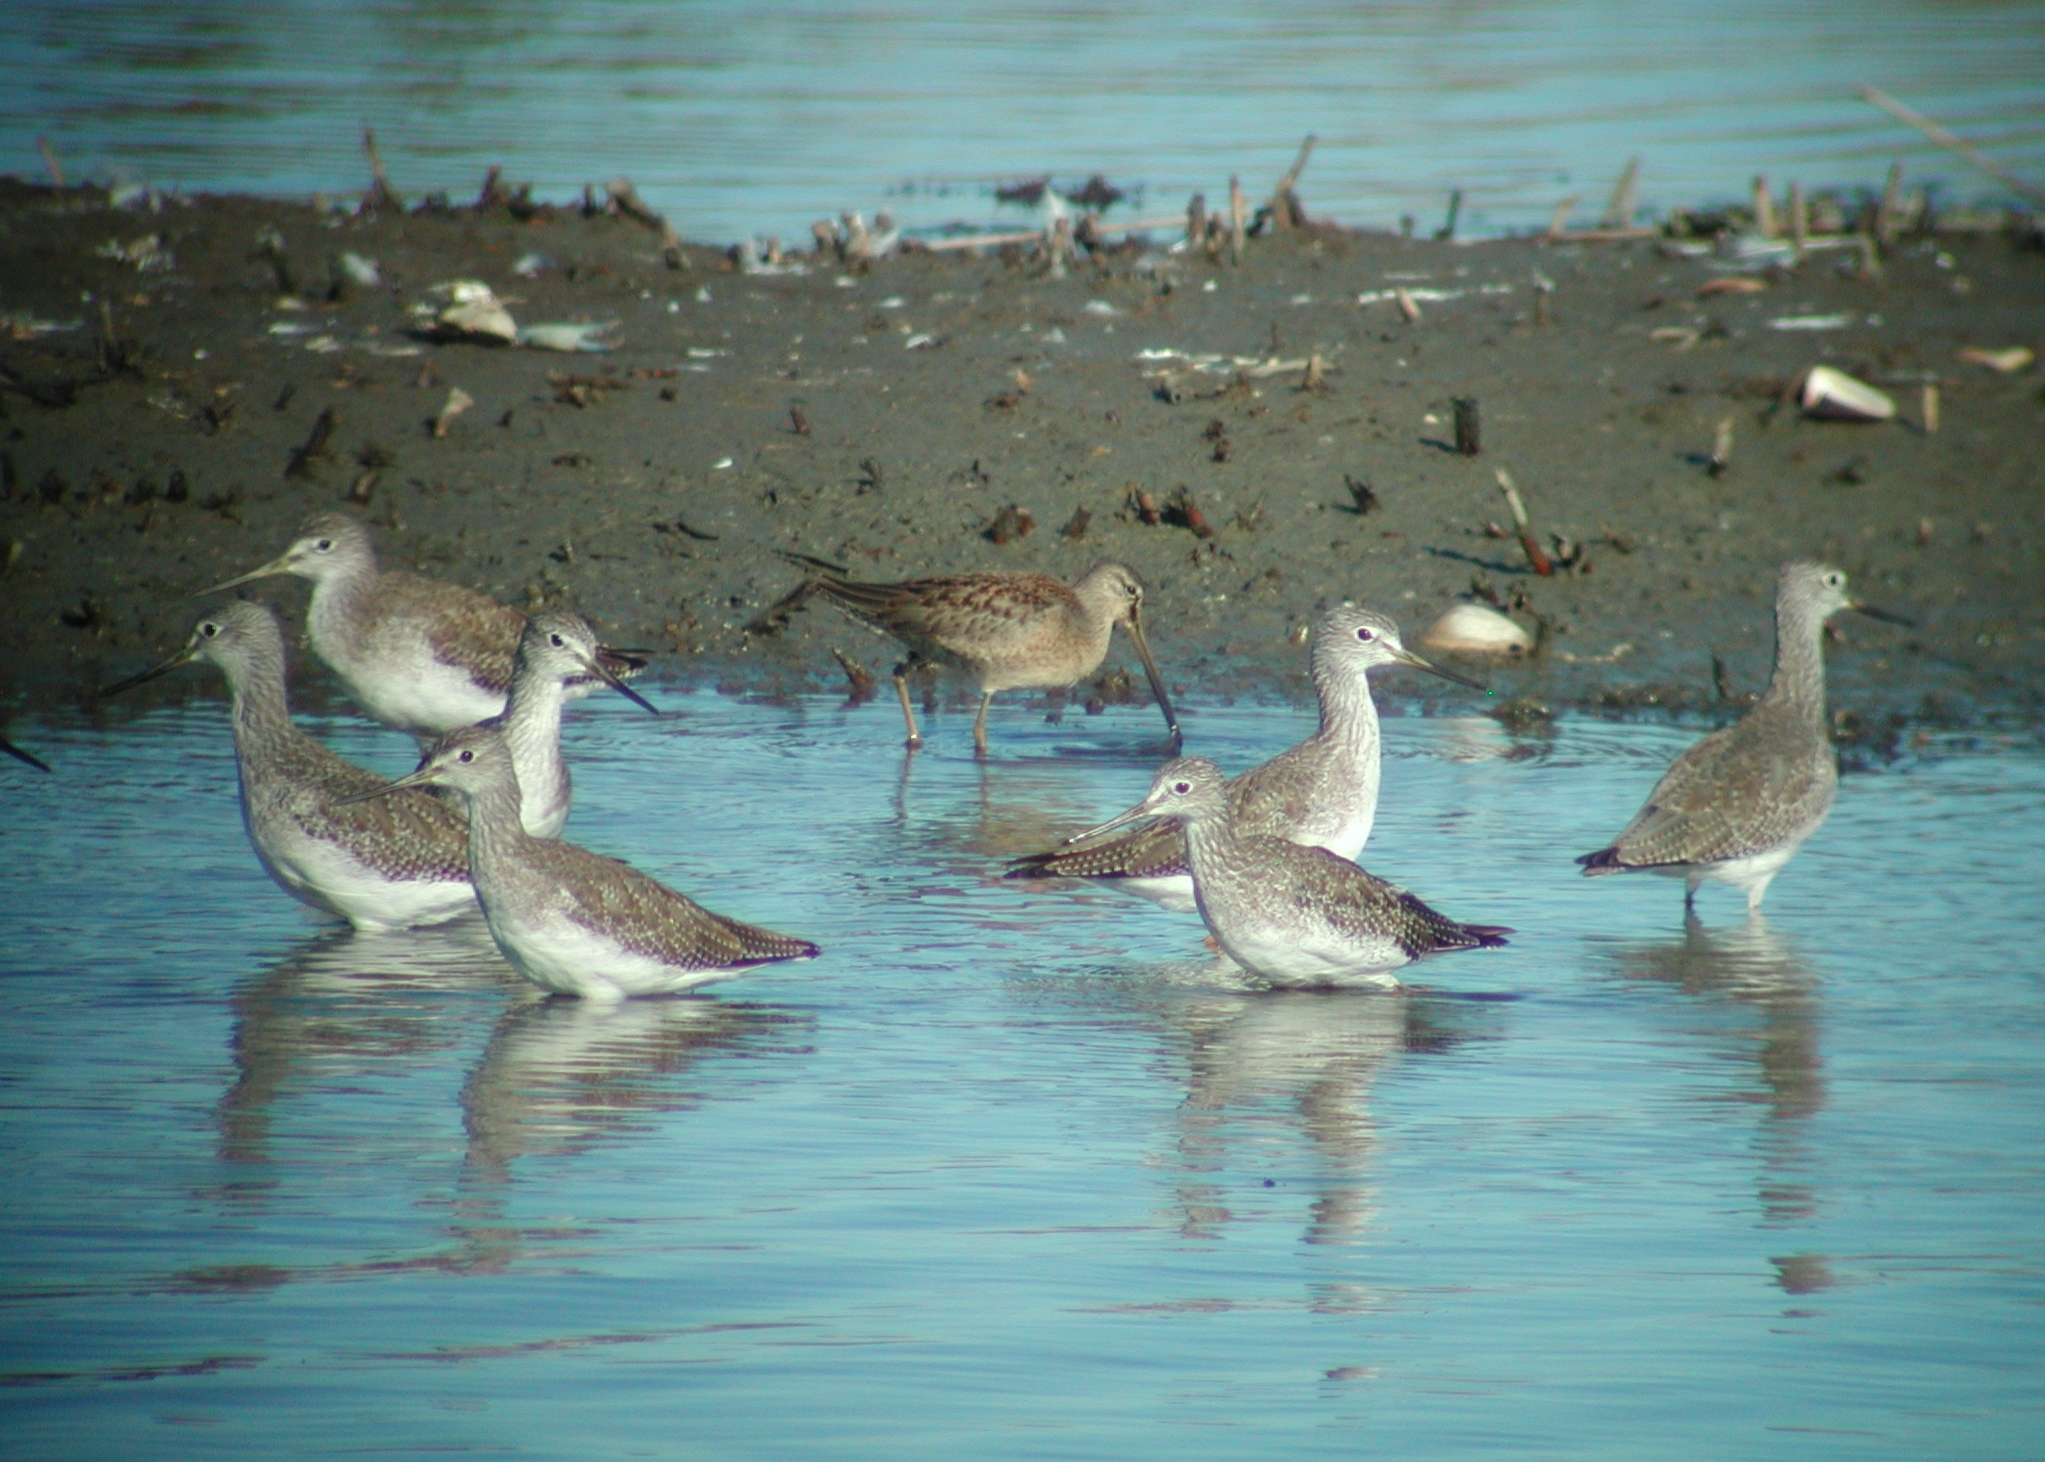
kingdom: Animalia
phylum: Chordata
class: Aves
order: Charadriiformes
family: Scolopacidae
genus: Tringa
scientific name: Tringa melanoleuca
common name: Greater yellowlegs
